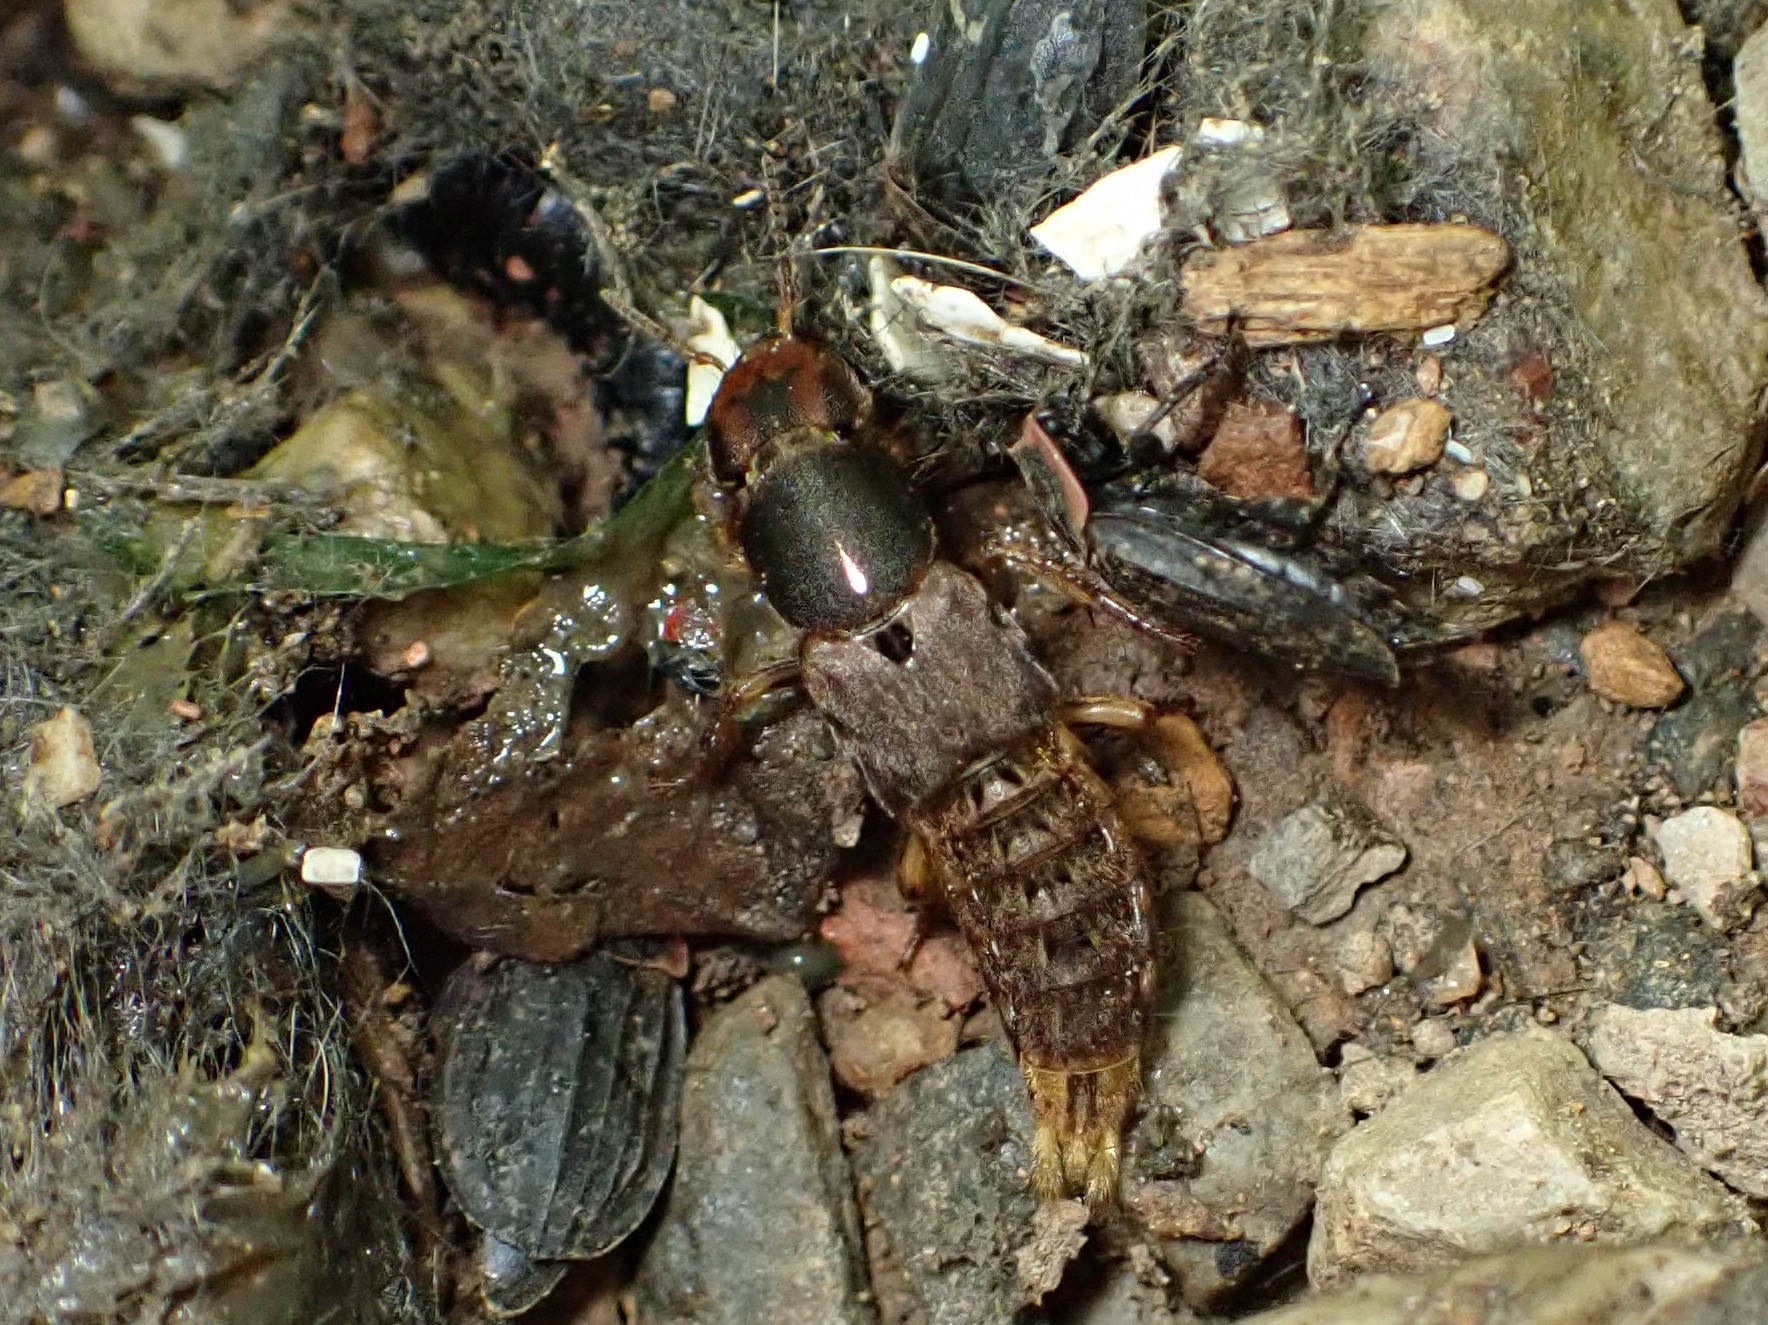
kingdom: Animalia
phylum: Arthropoda
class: Insecta
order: Coleoptera
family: Staphylinidae
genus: Platydracus
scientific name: Platydracus maculosus
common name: Brown rove beetle
